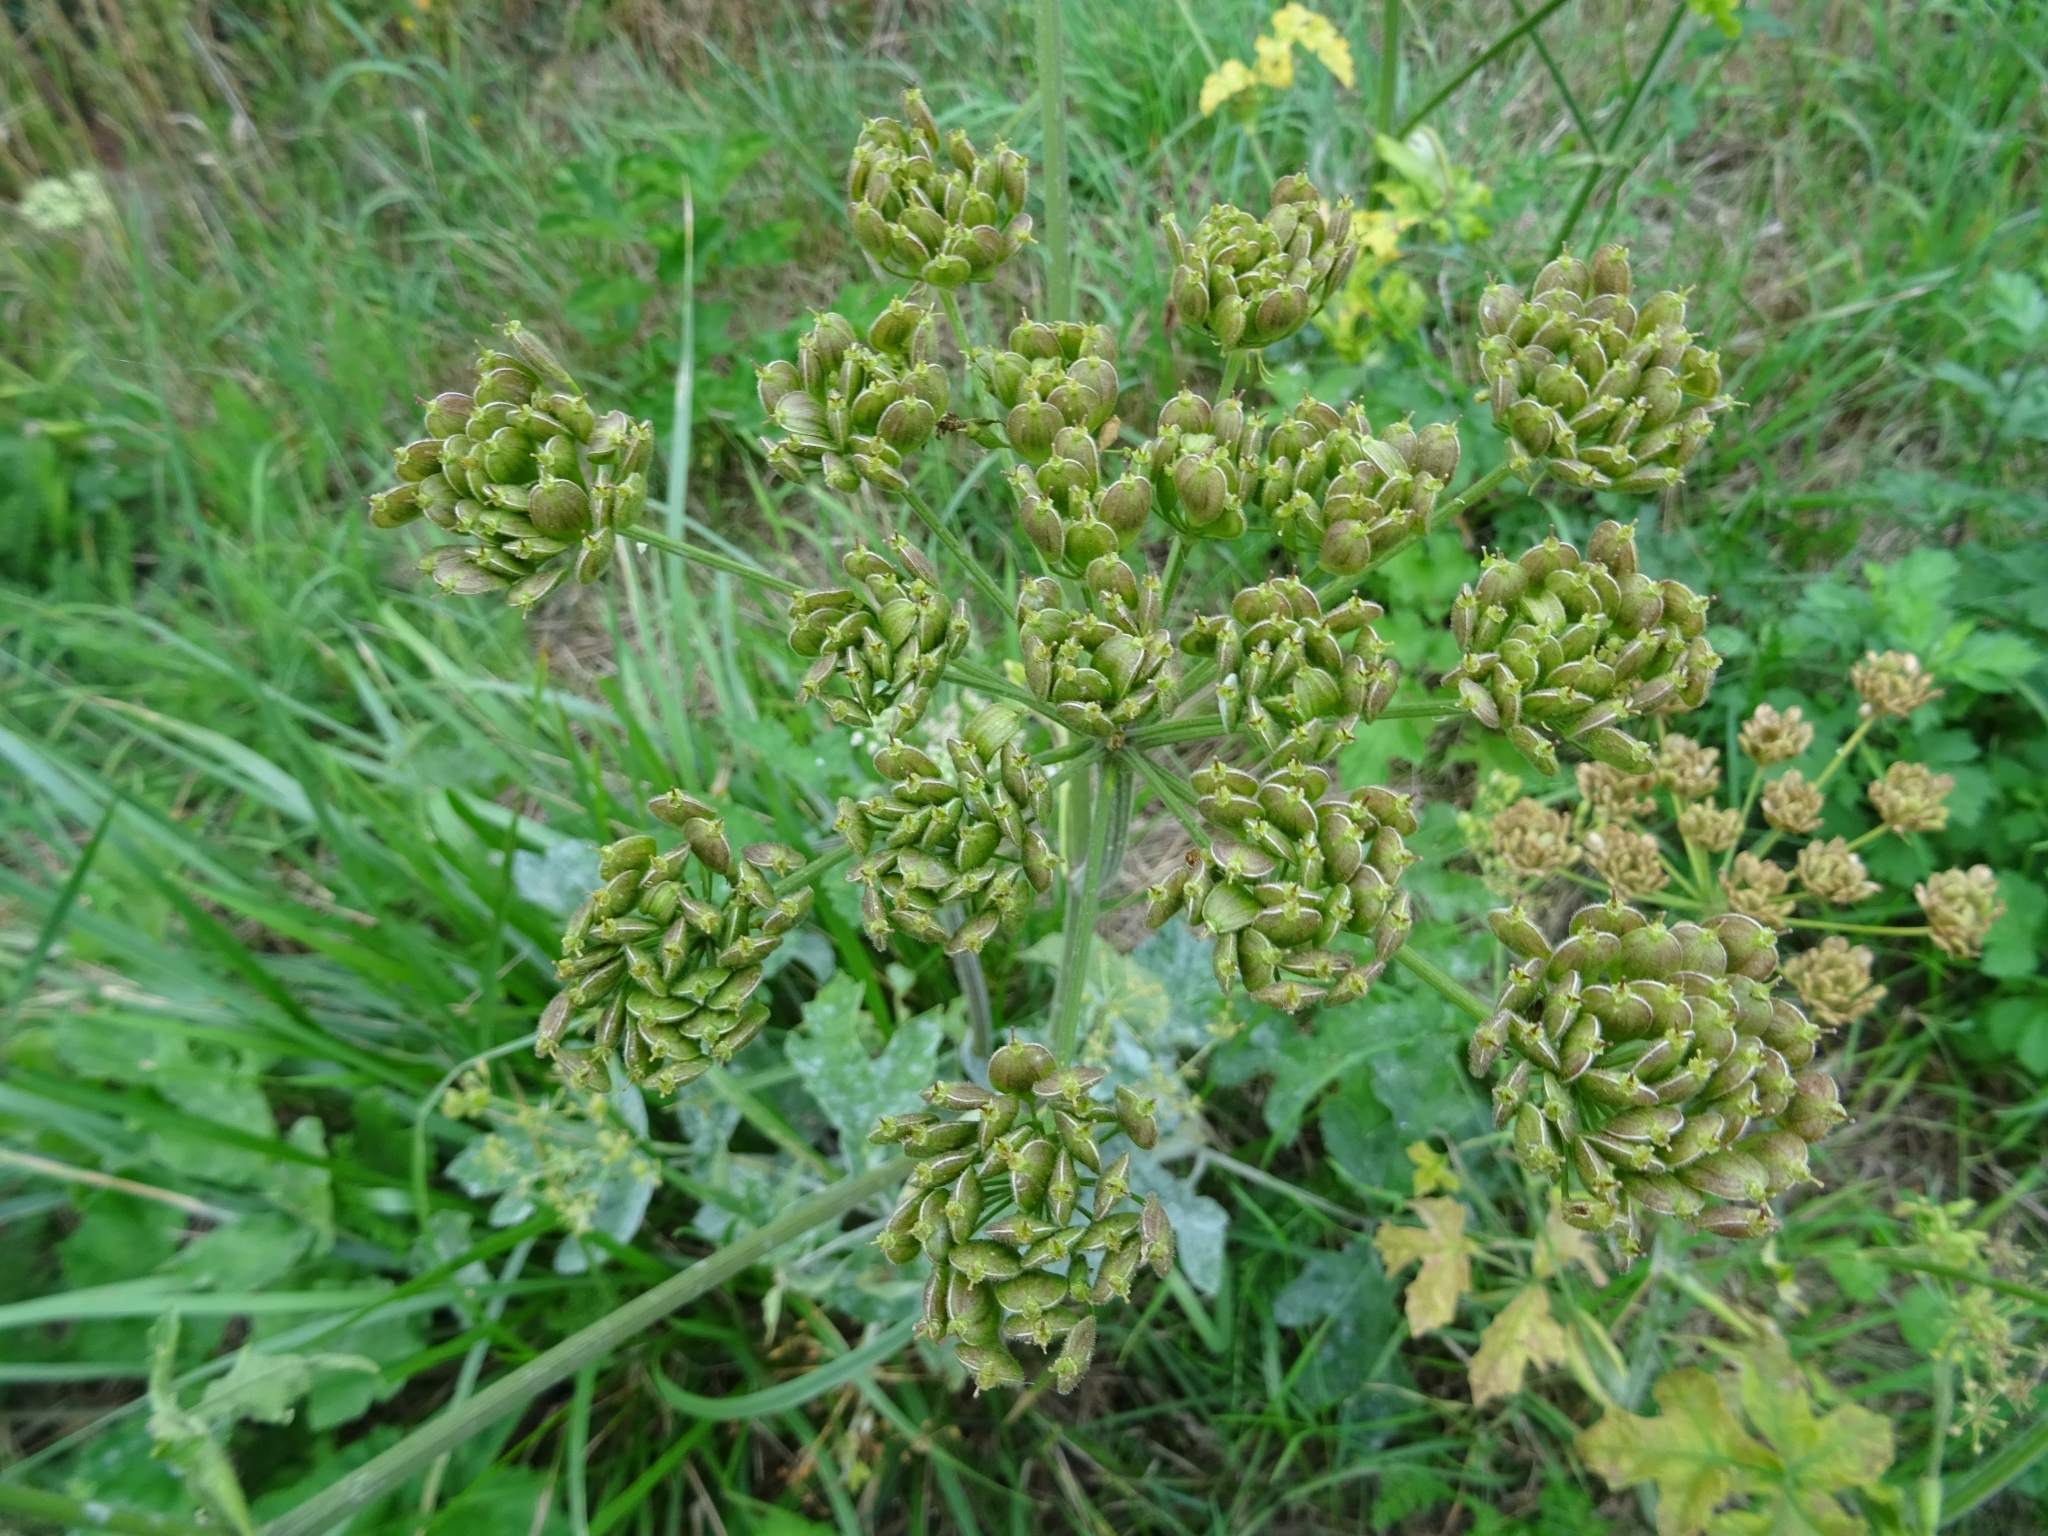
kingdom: Plantae
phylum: Tracheophyta
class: Magnoliopsida
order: Apiales
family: Apiaceae
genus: Heracleum
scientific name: Heracleum sphondylium
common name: Hogweed
